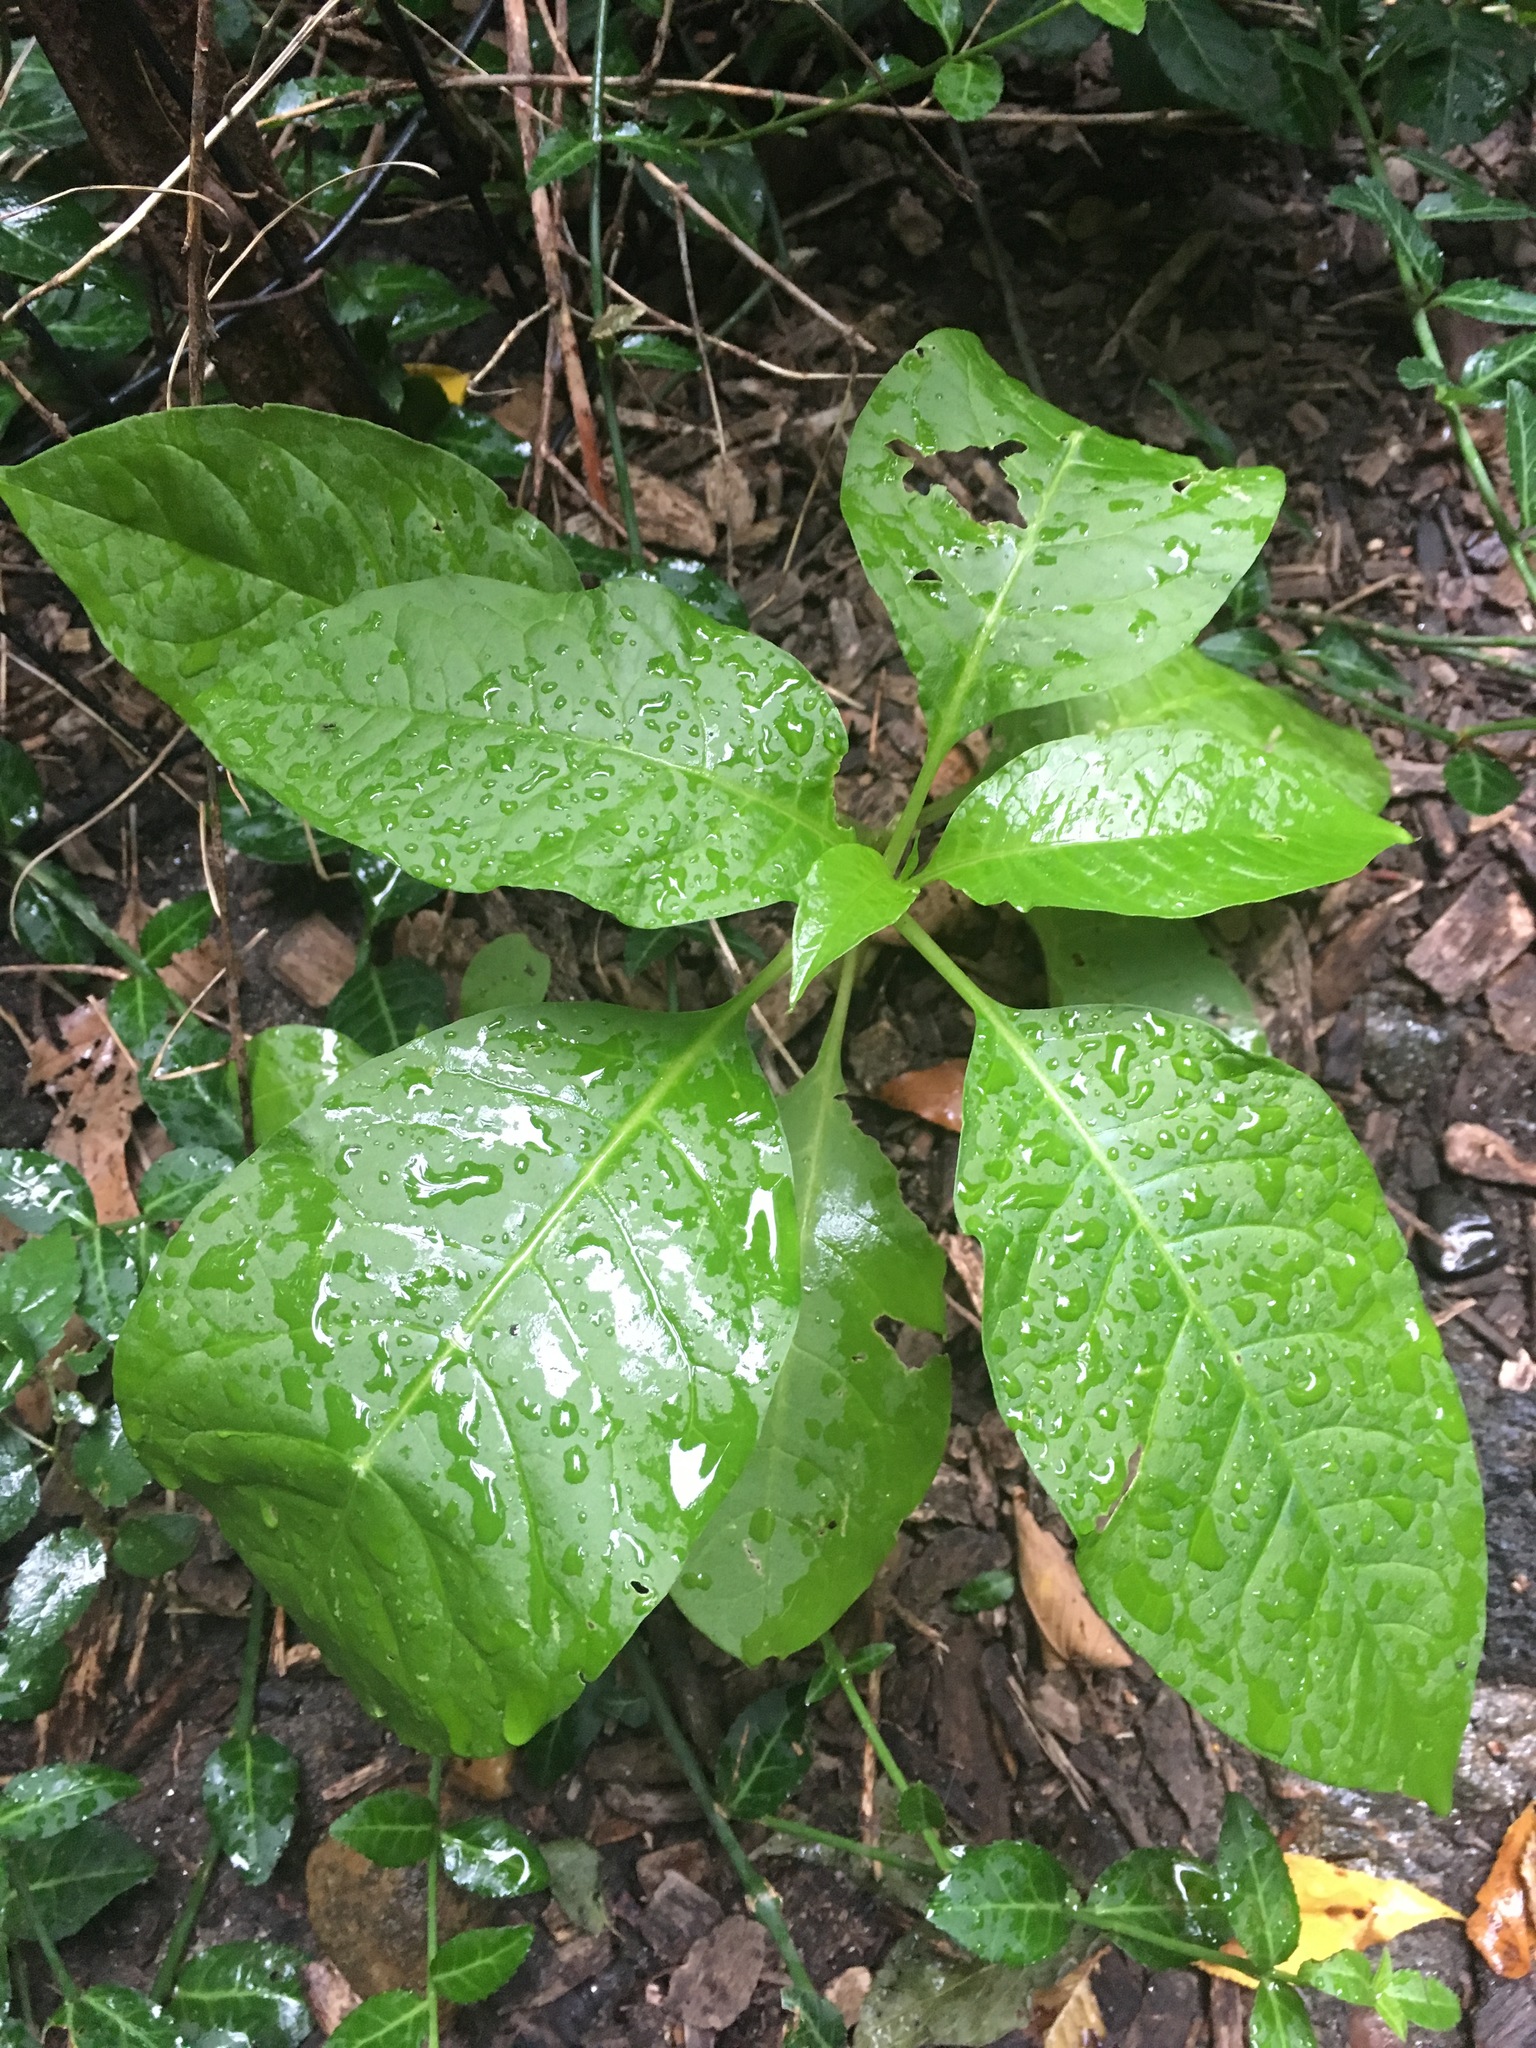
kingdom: Plantae
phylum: Tracheophyta
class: Magnoliopsida
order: Caryophyllales
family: Phytolaccaceae
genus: Phytolacca
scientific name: Phytolacca americana
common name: American pokeweed
